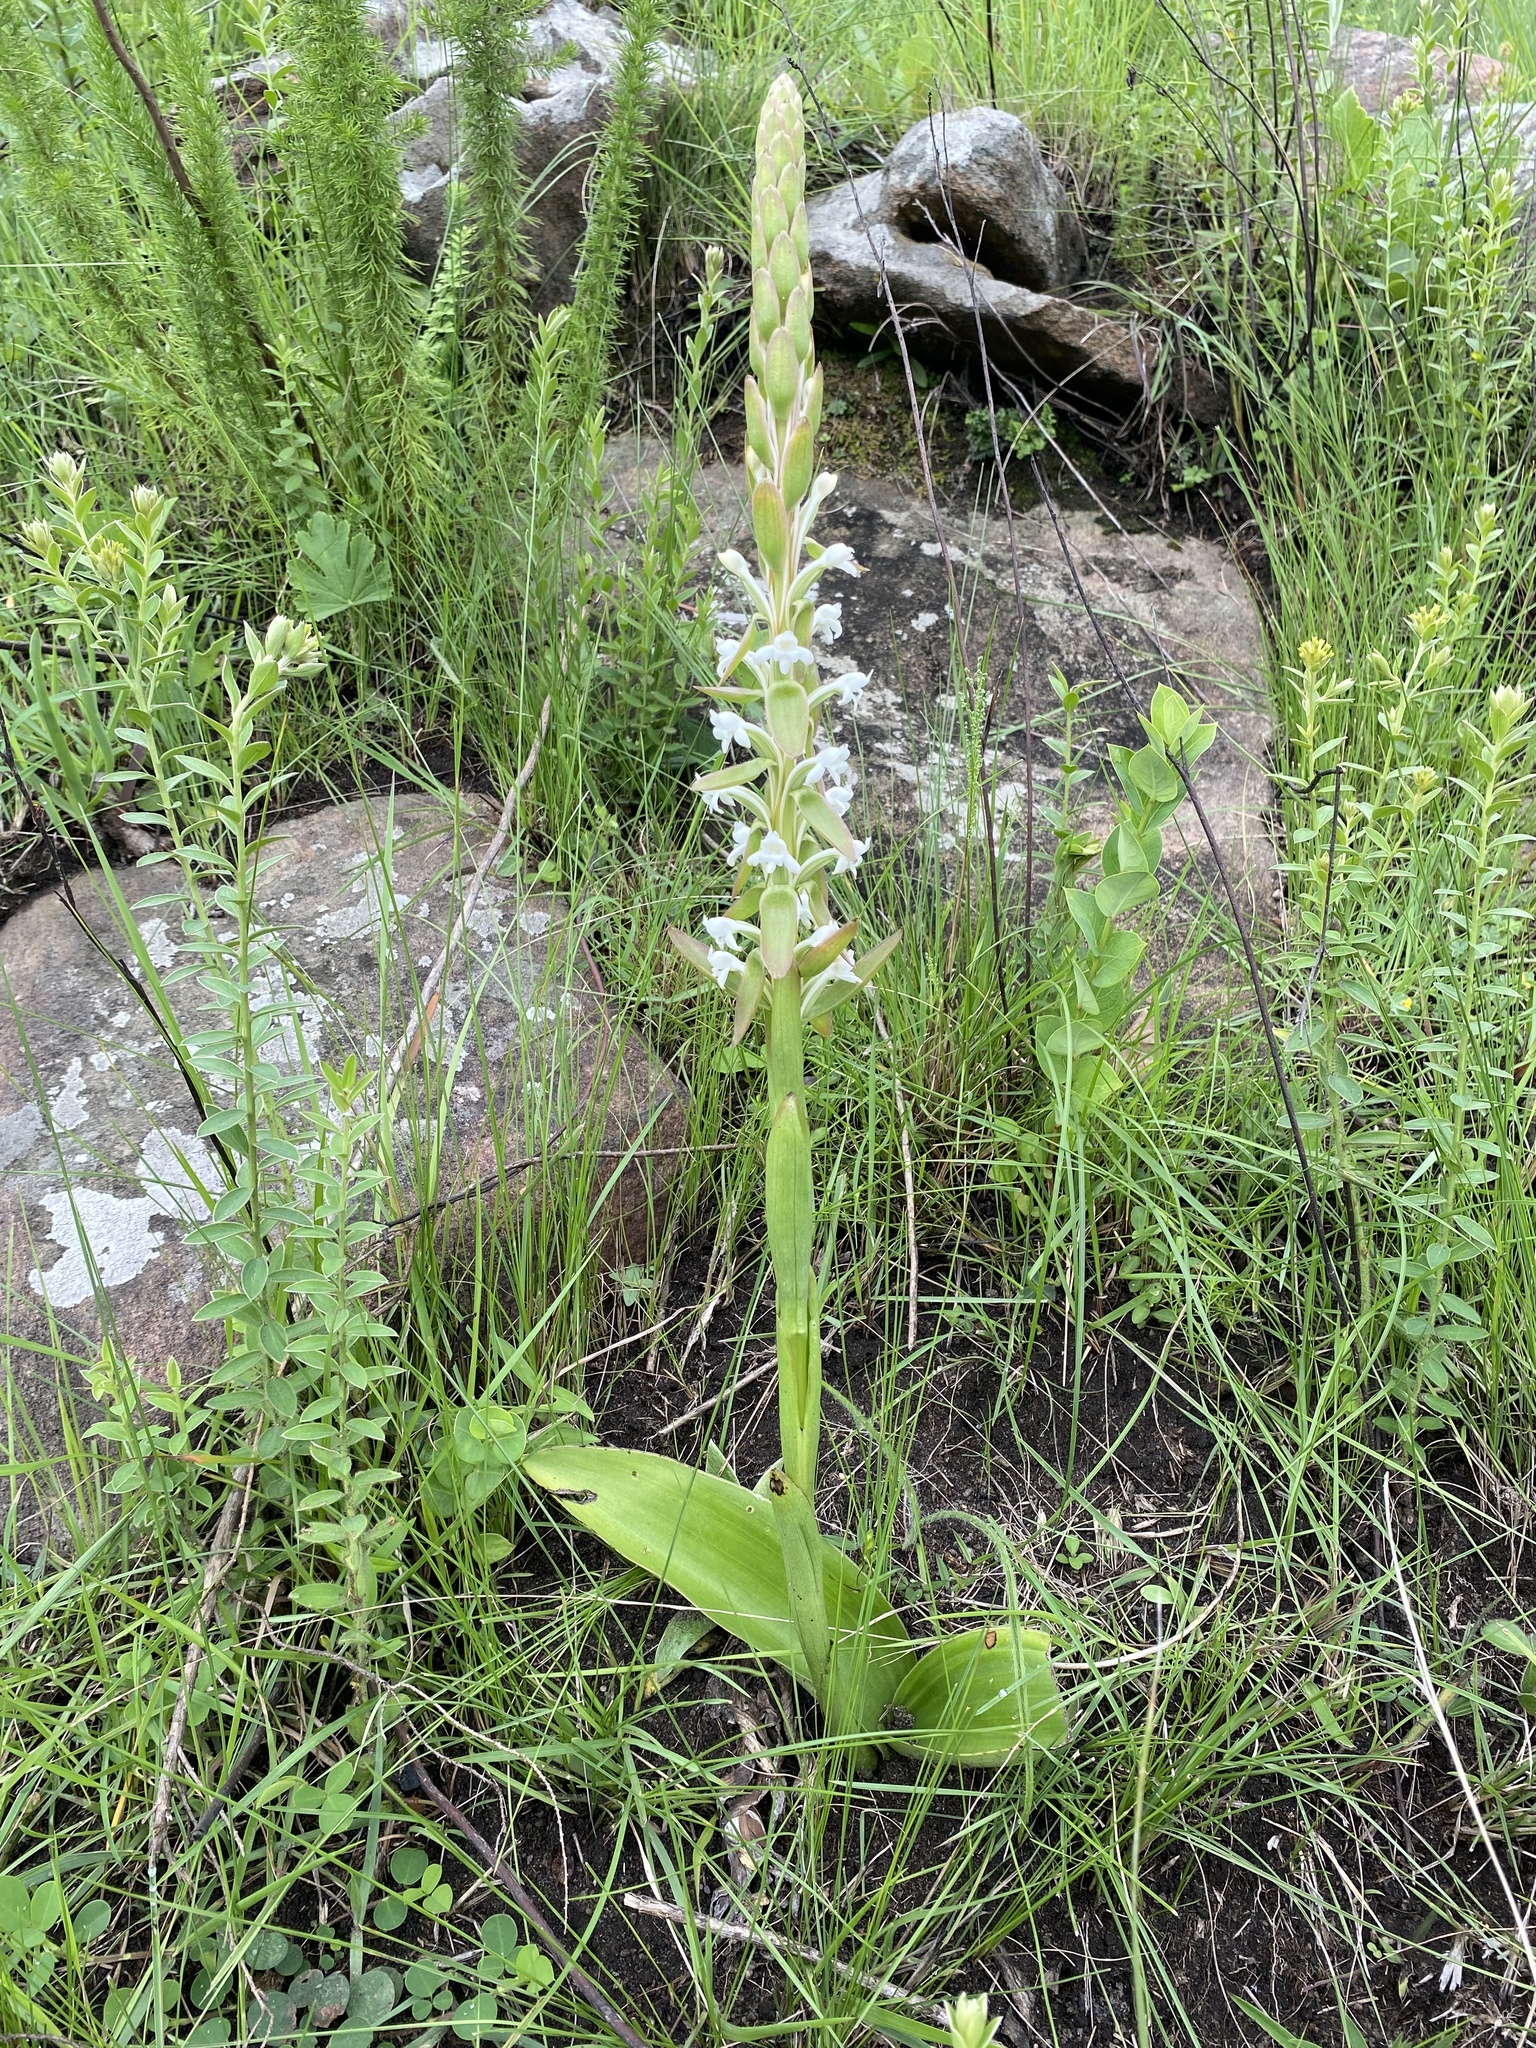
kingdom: Plantae
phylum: Tracheophyta
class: Liliopsida
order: Asparagales
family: Orchidaceae
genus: Satyrium
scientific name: Satyrium longicauda
